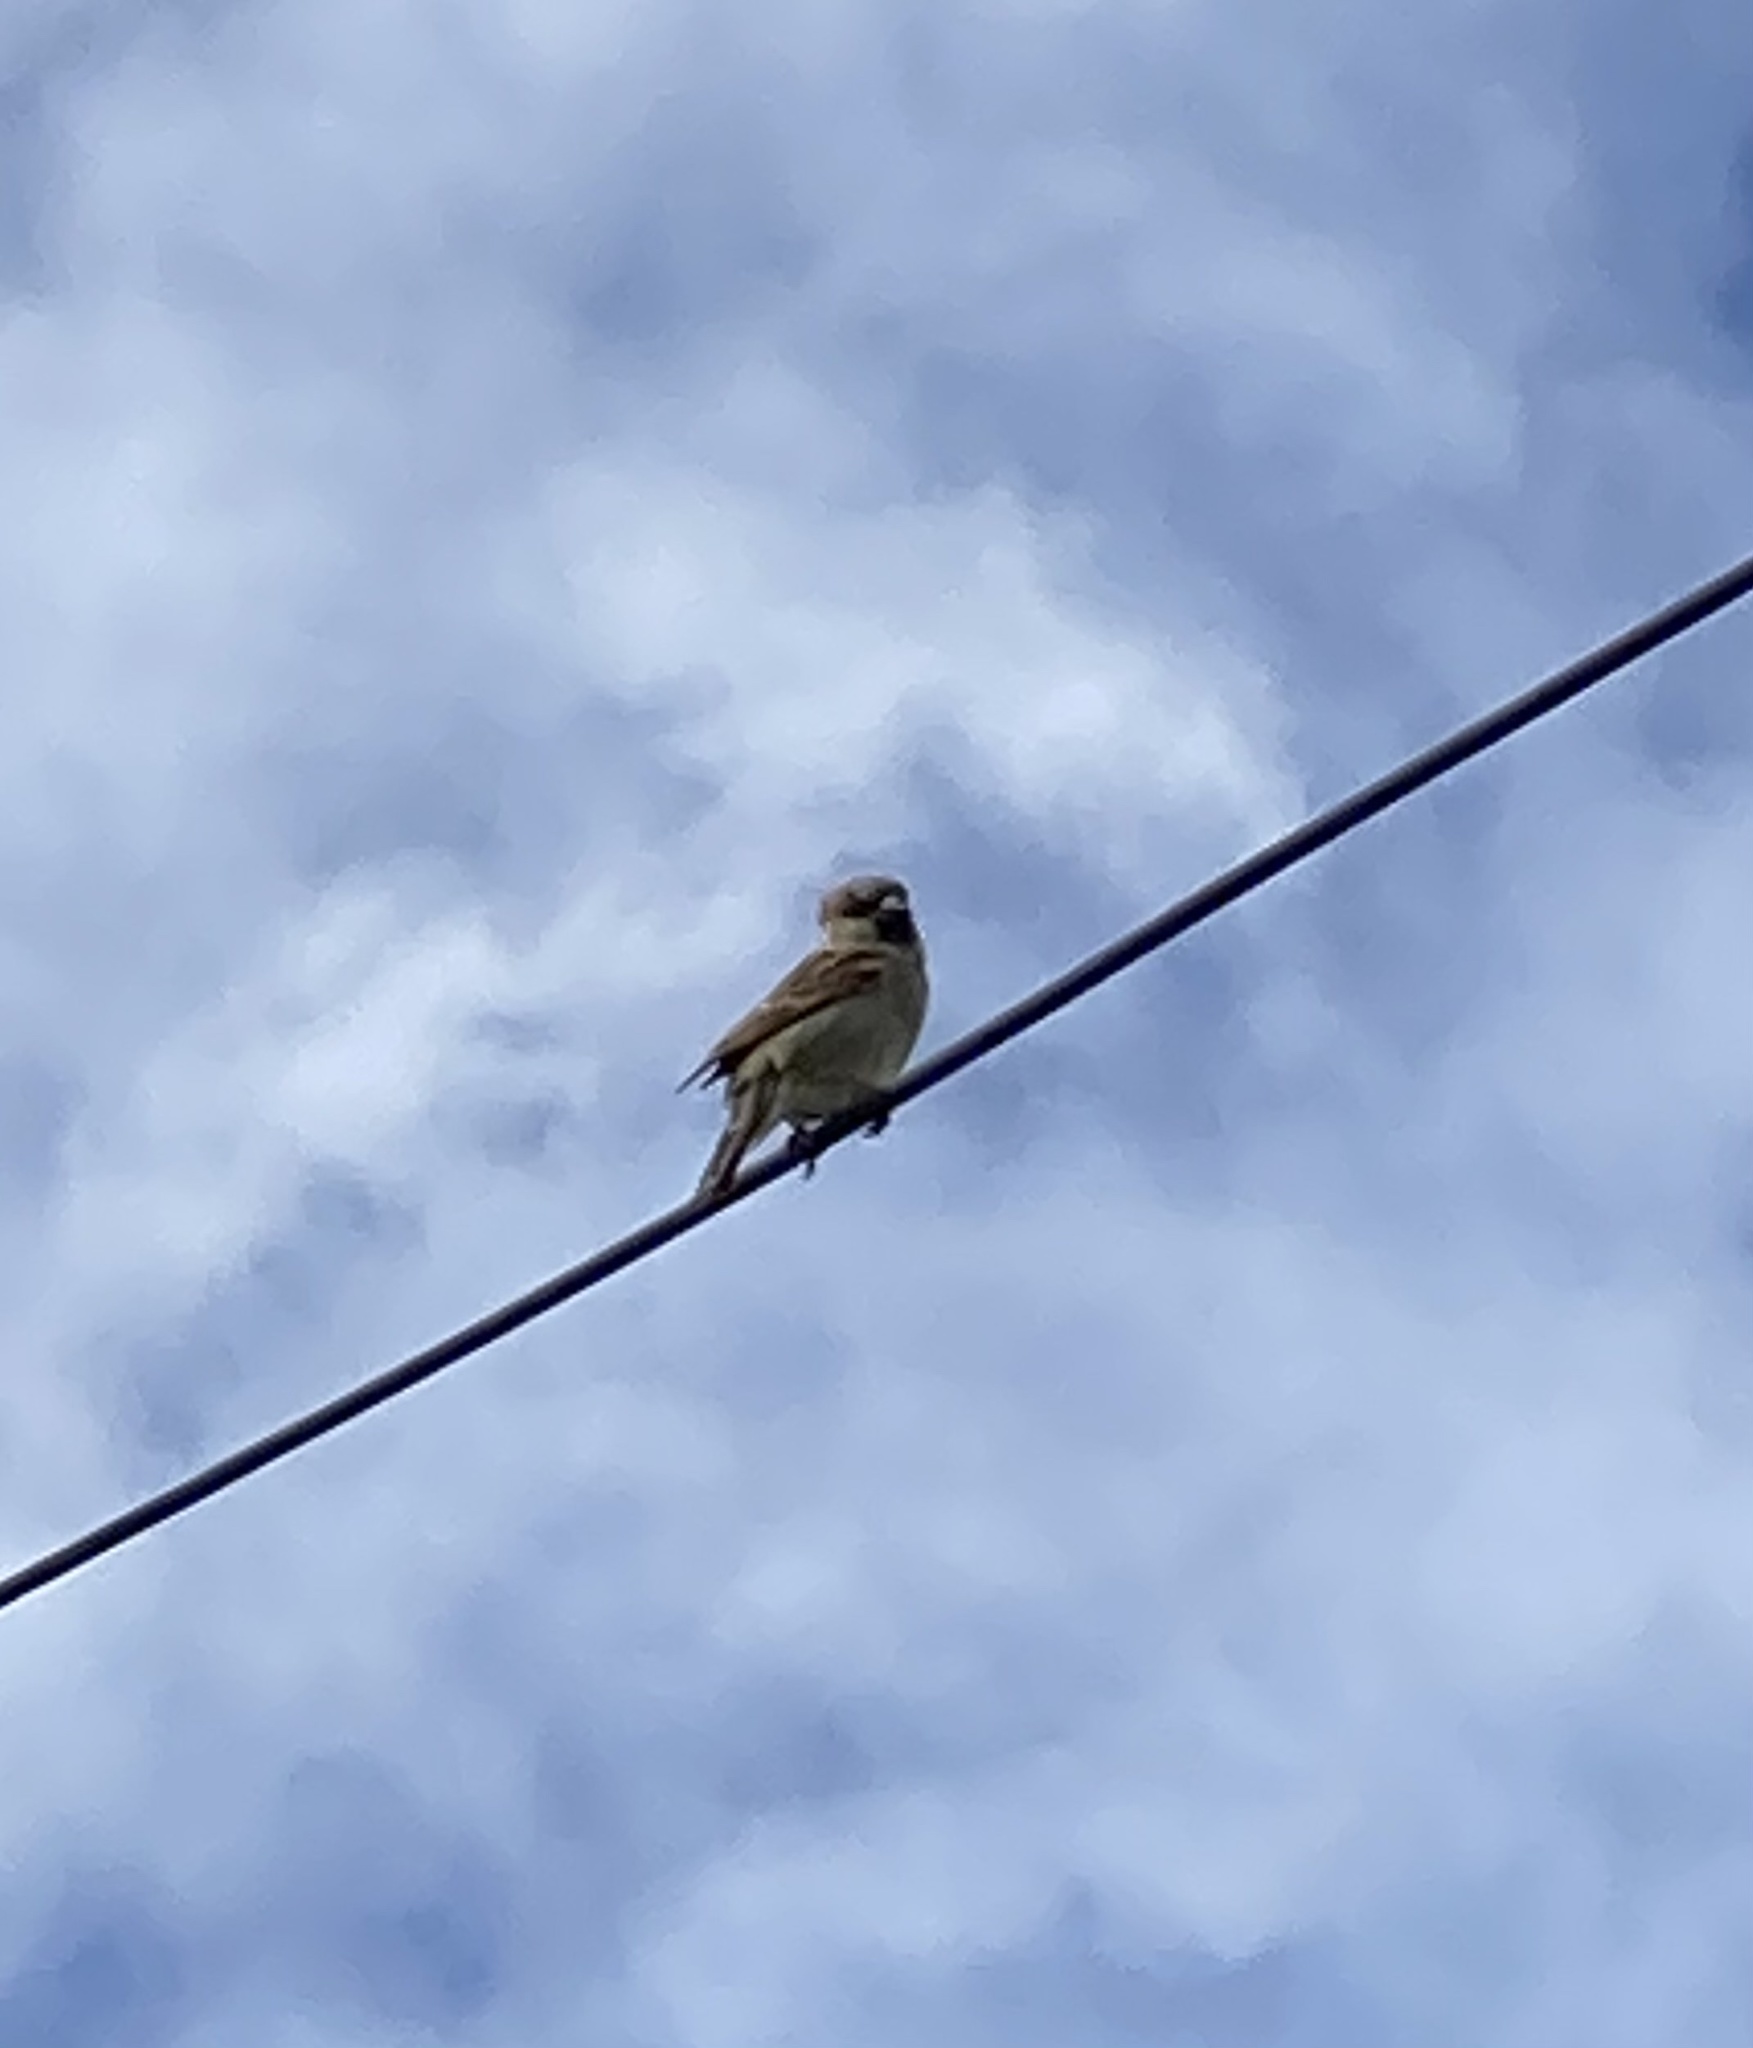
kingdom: Animalia
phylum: Chordata
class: Aves
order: Passeriformes
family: Passeridae
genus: Passer
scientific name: Passer domesticus
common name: House sparrow
